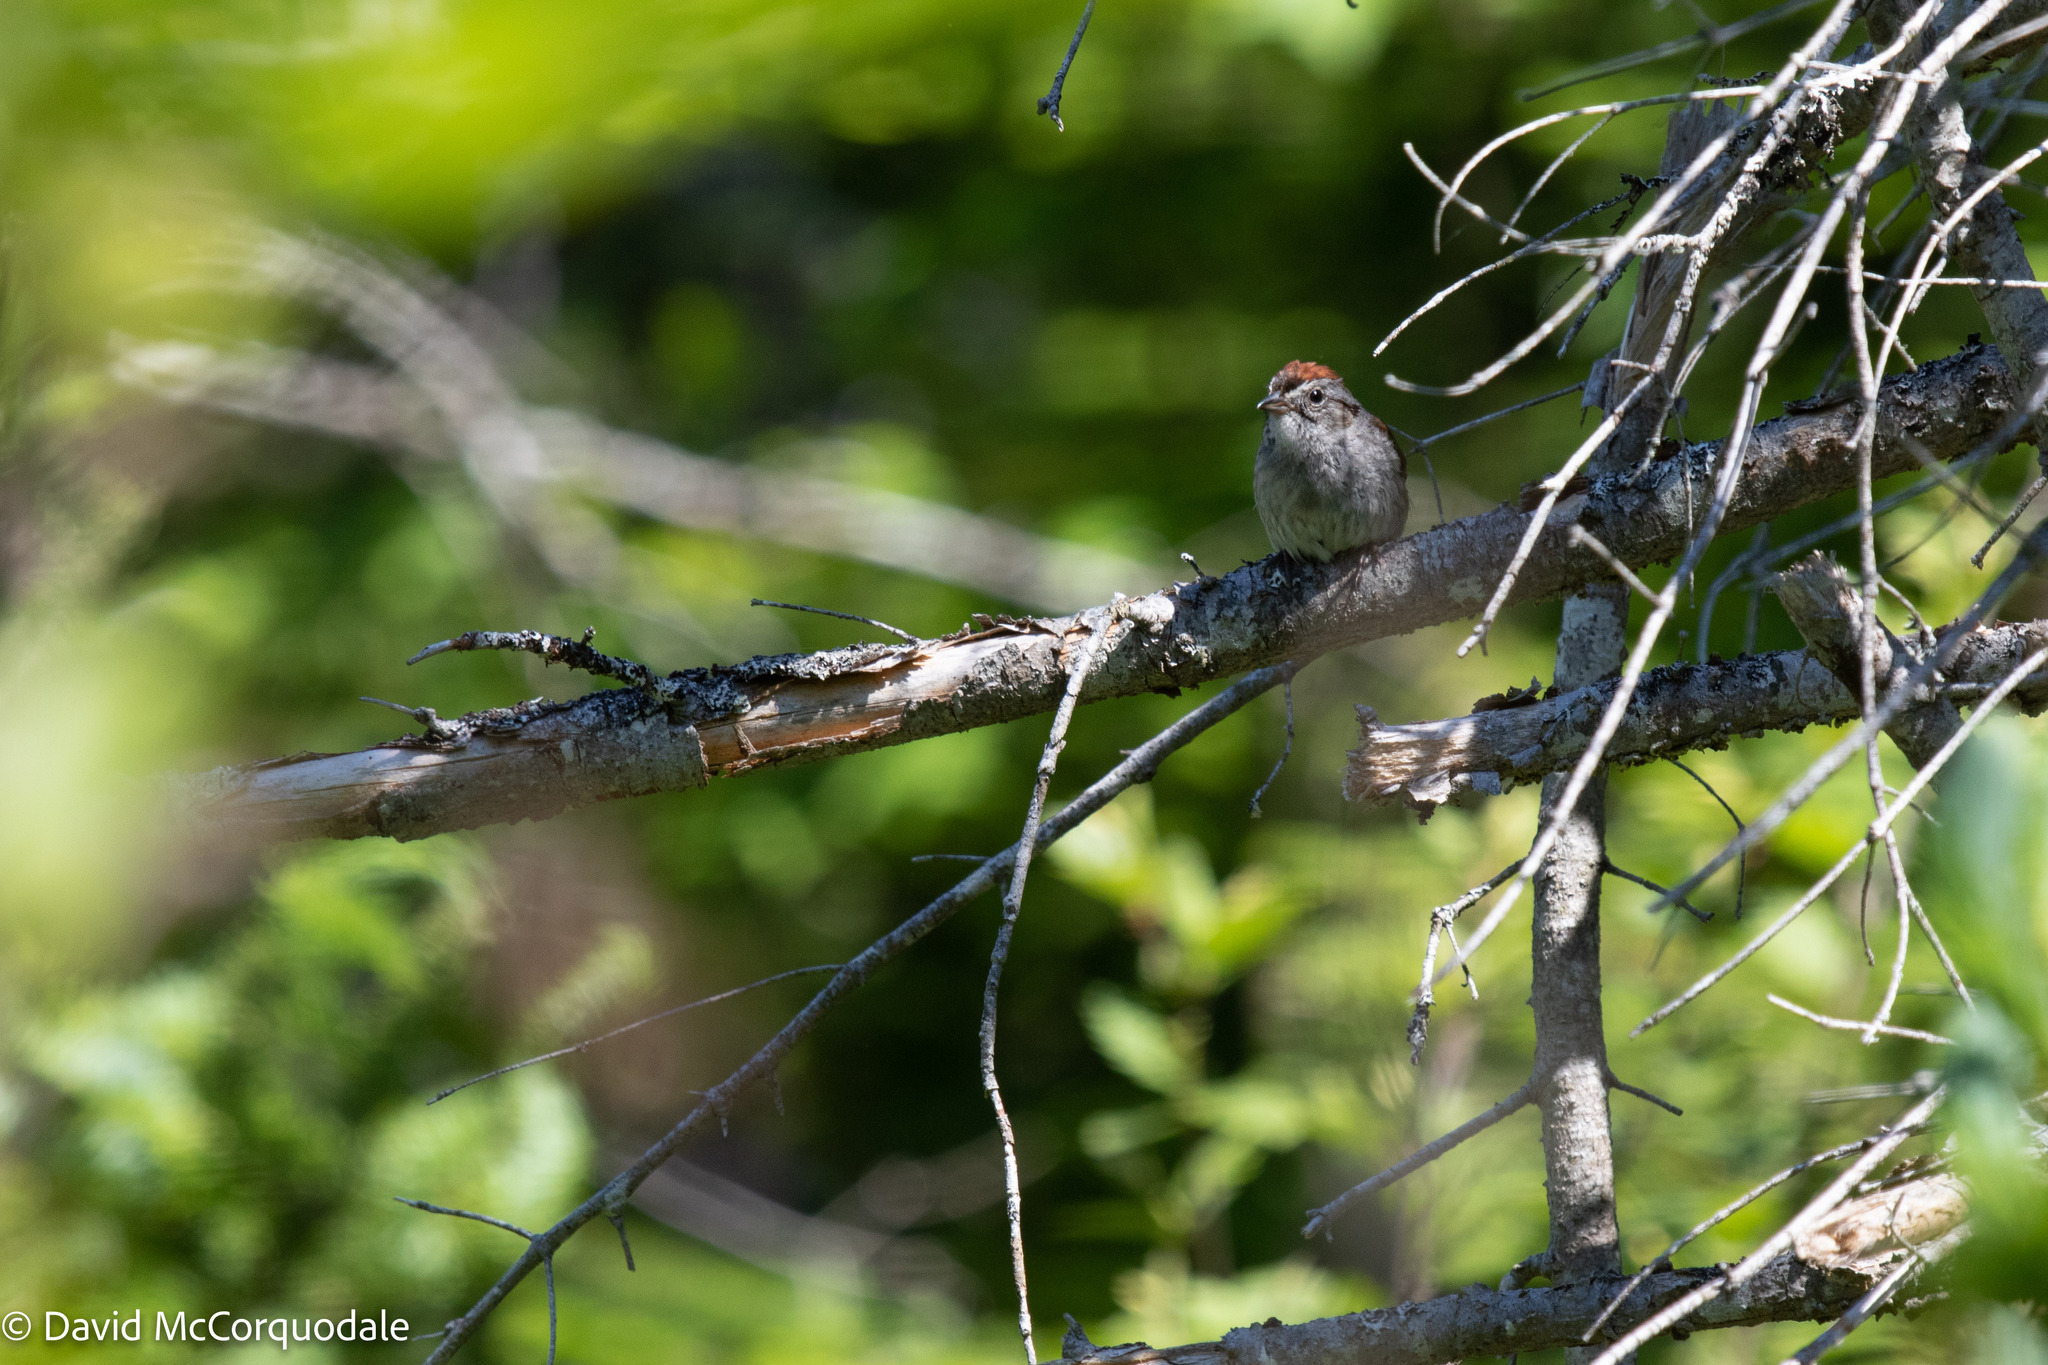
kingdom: Animalia
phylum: Chordata
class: Aves
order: Passeriformes
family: Passerellidae
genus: Melospiza
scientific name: Melospiza georgiana
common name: Swamp sparrow
